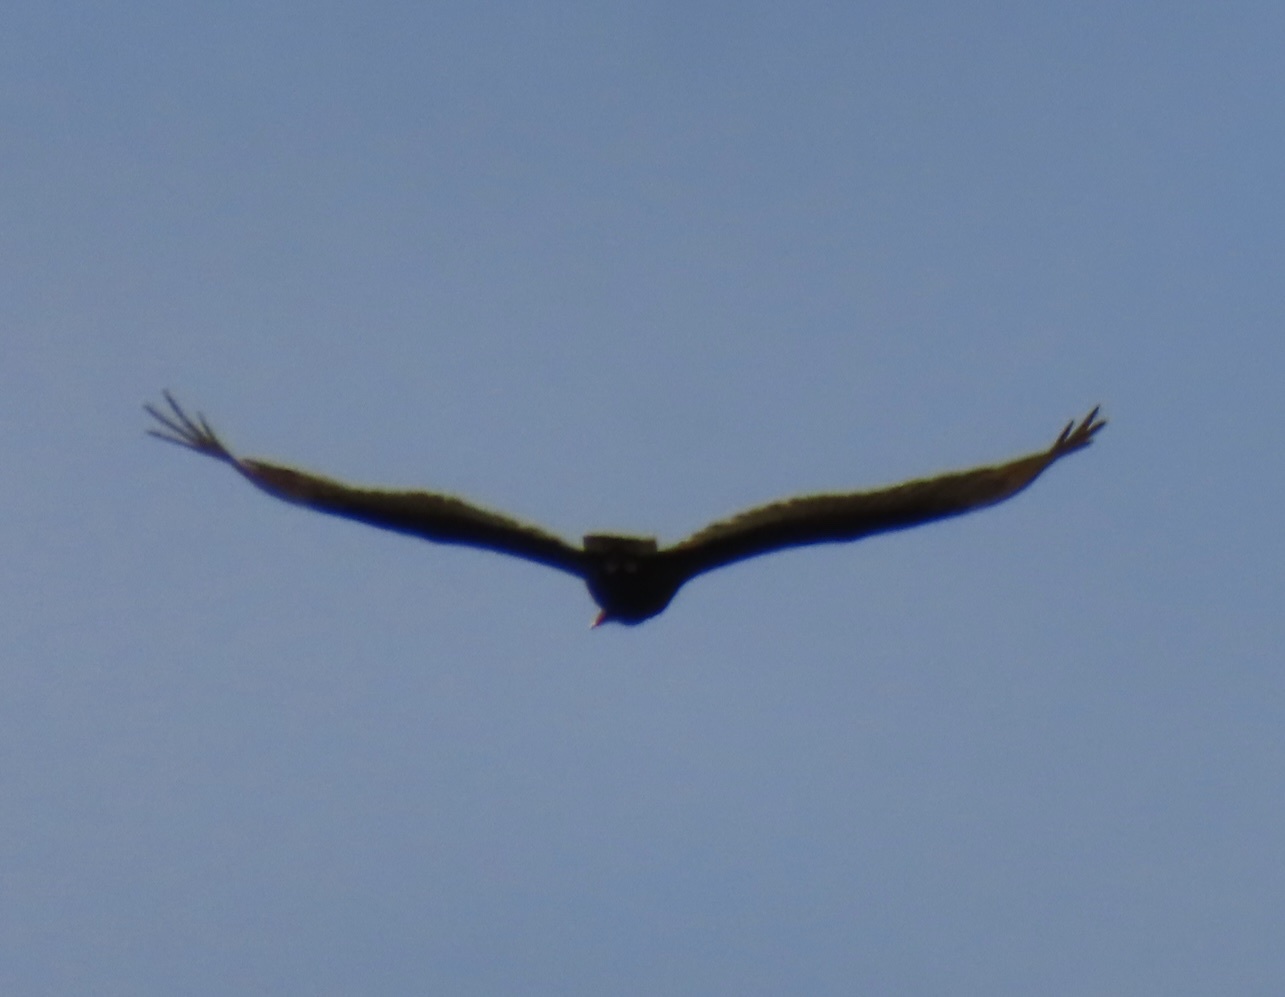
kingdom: Animalia
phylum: Chordata
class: Aves
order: Accipitriformes
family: Cathartidae
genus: Cathartes
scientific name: Cathartes aura
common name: Turkey vulture
